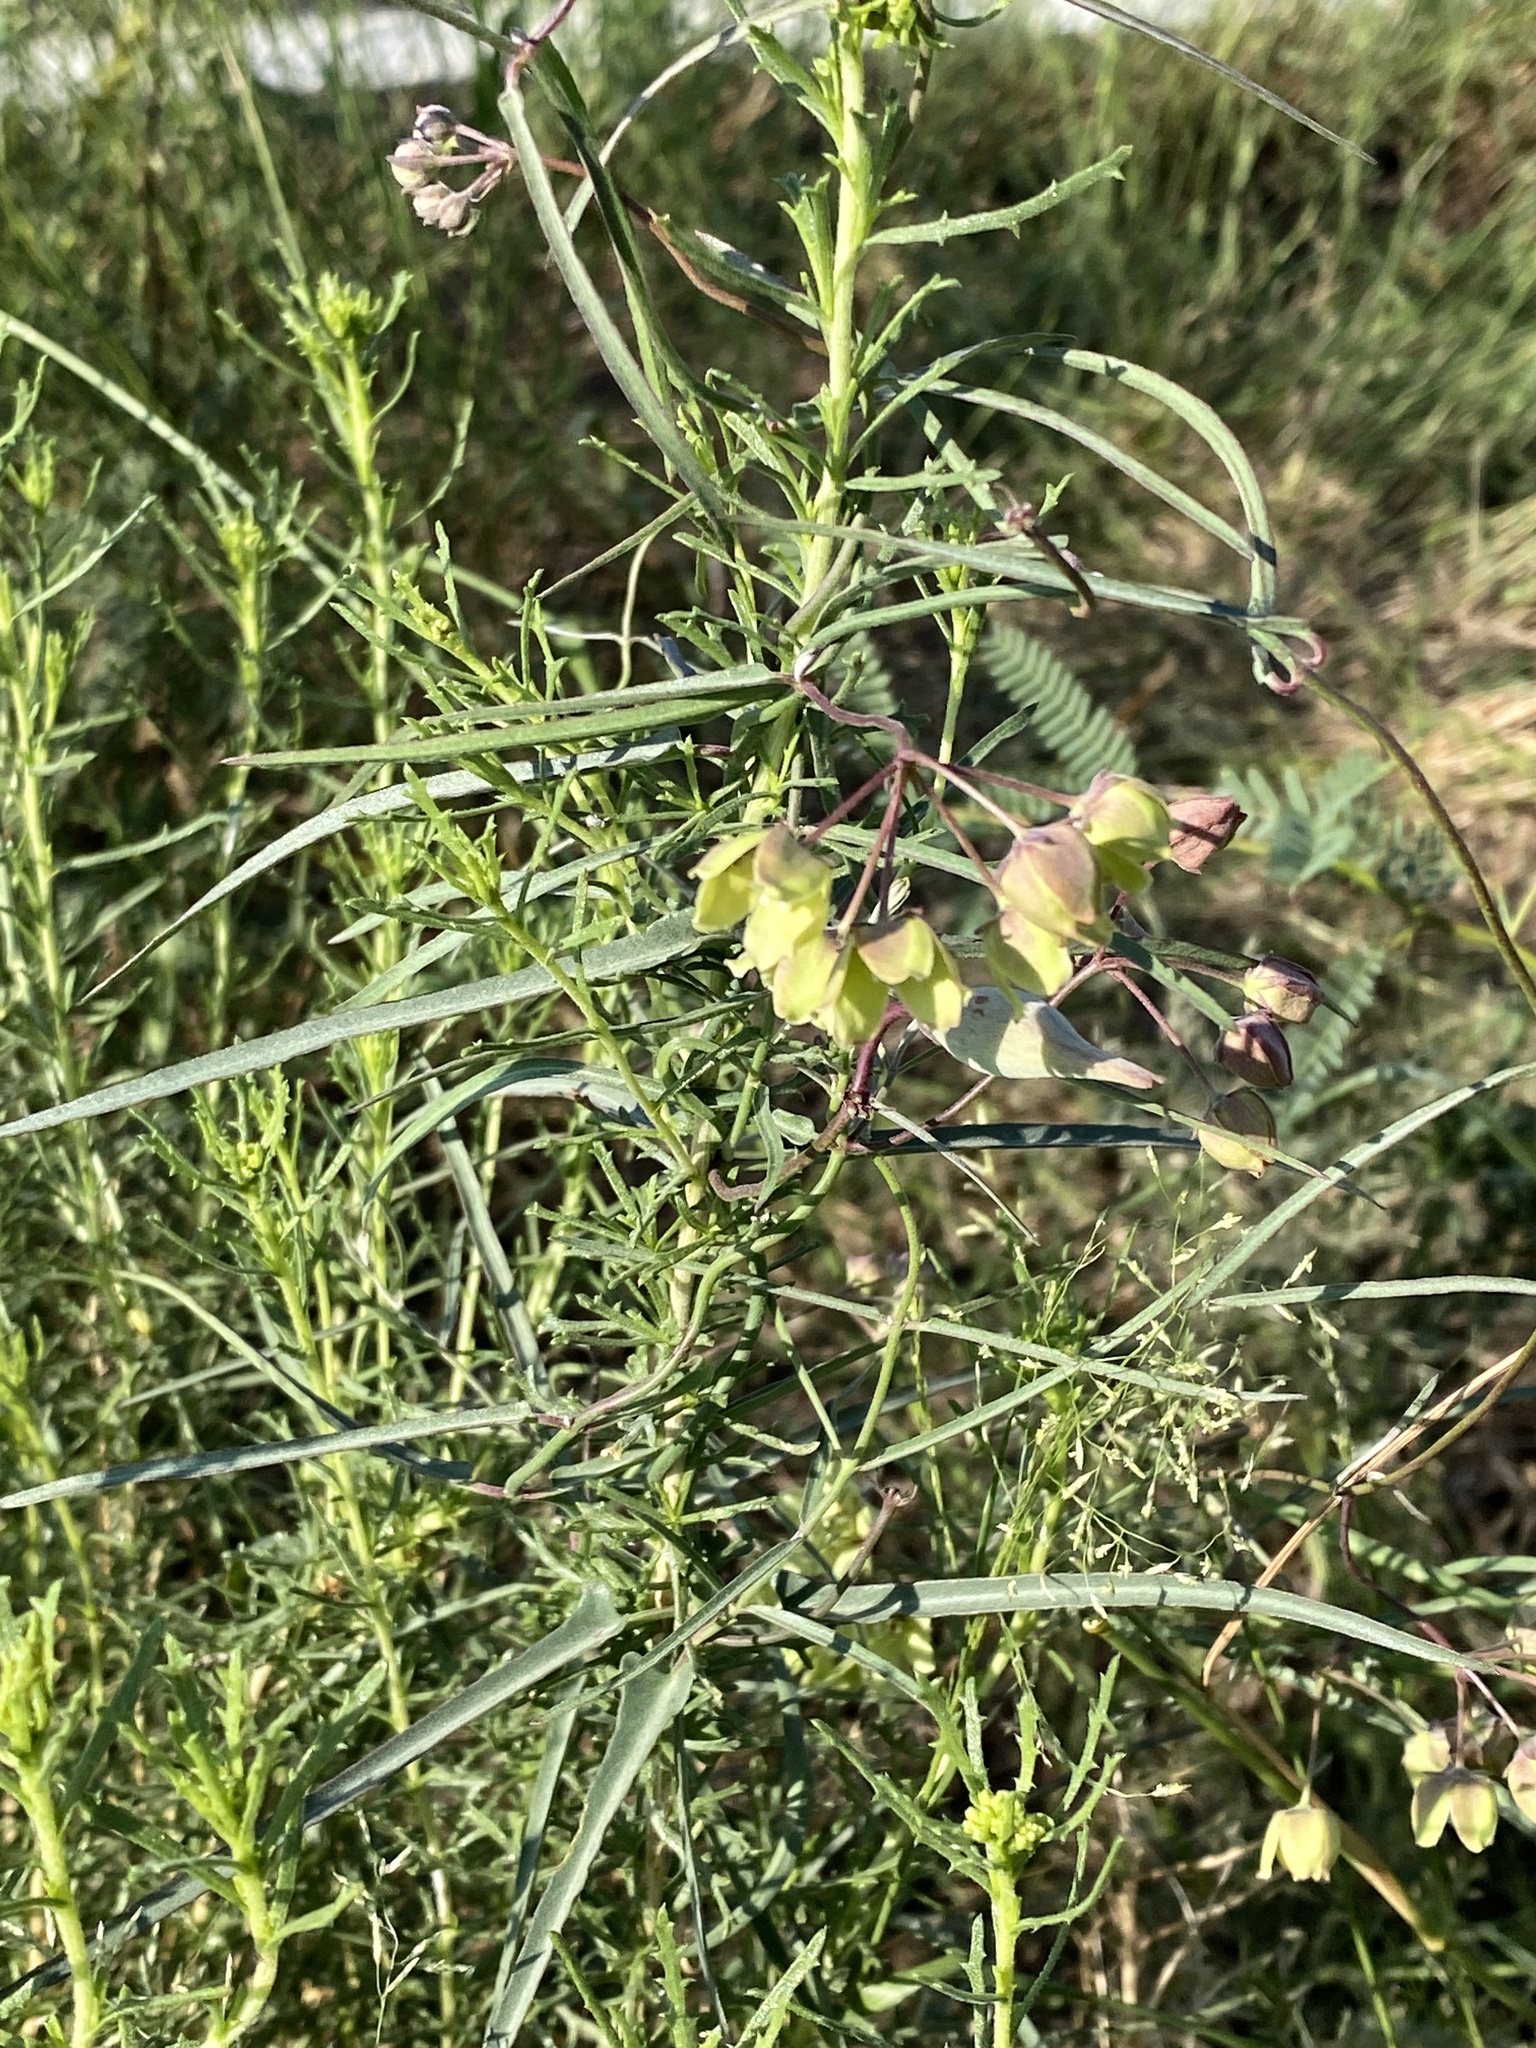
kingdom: Plantae
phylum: Tracheophyta
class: Magnoliopsida
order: Gentianales
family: Apocynaceae
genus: Funastrum
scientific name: Funastrum crispum
